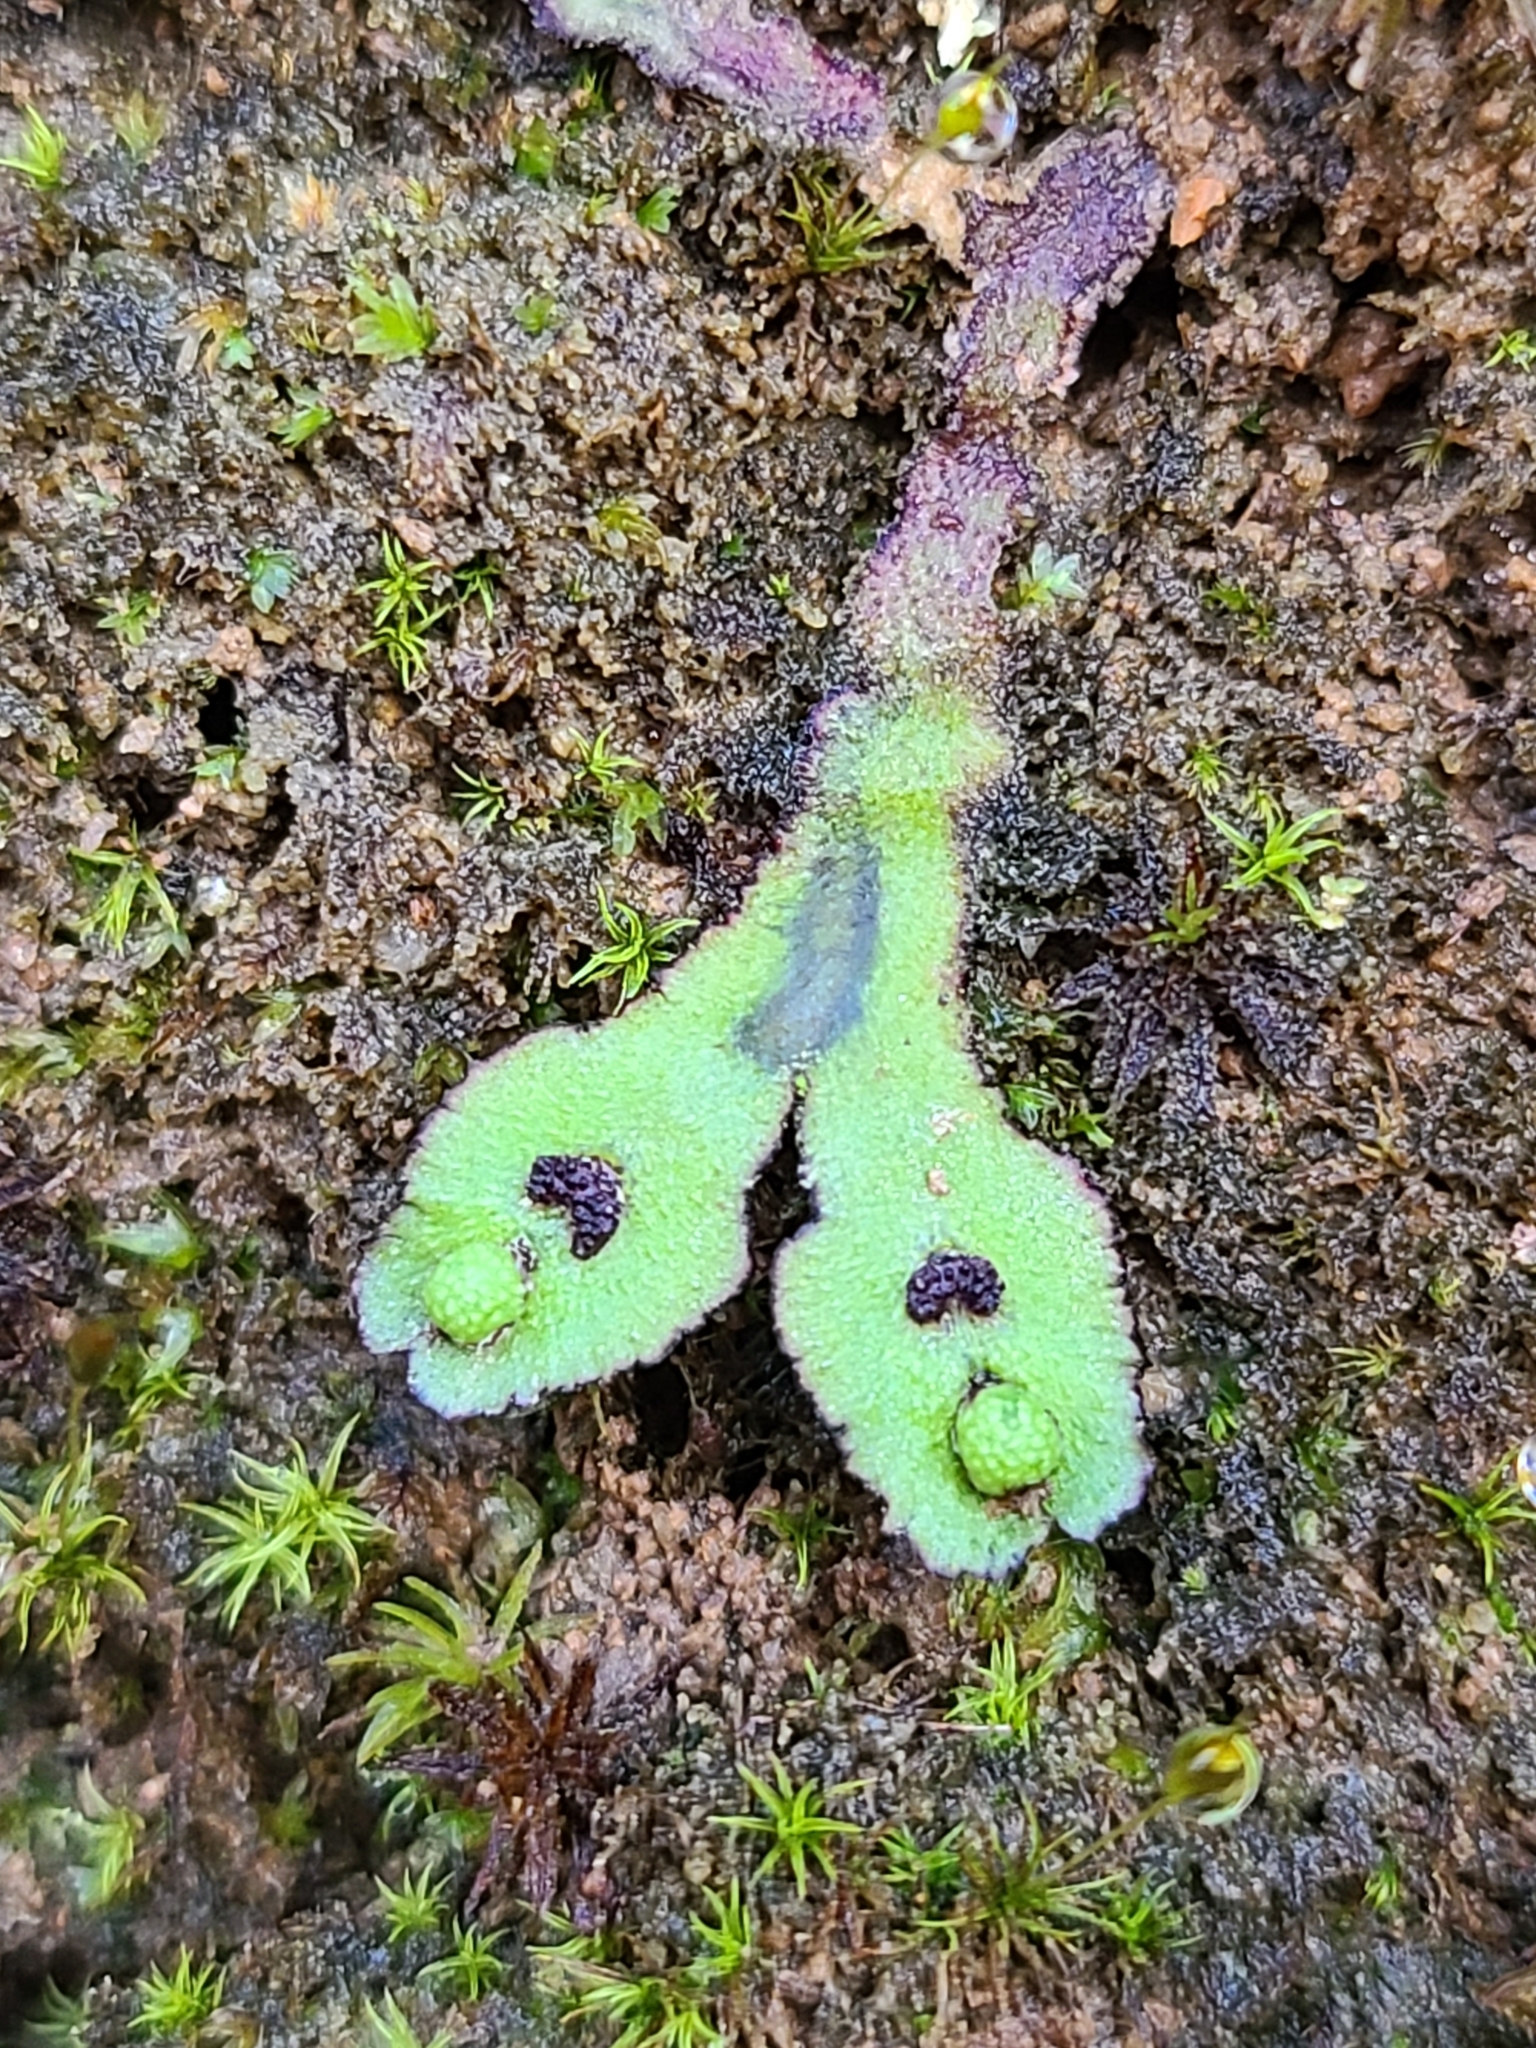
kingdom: Plantae
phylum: Marchantiophyta
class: Marchantiopsida
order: Marchantiales
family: Aytoniaceae
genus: Reboulia
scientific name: Reboulia hemisphaerica
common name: Purple-margined liverwort
